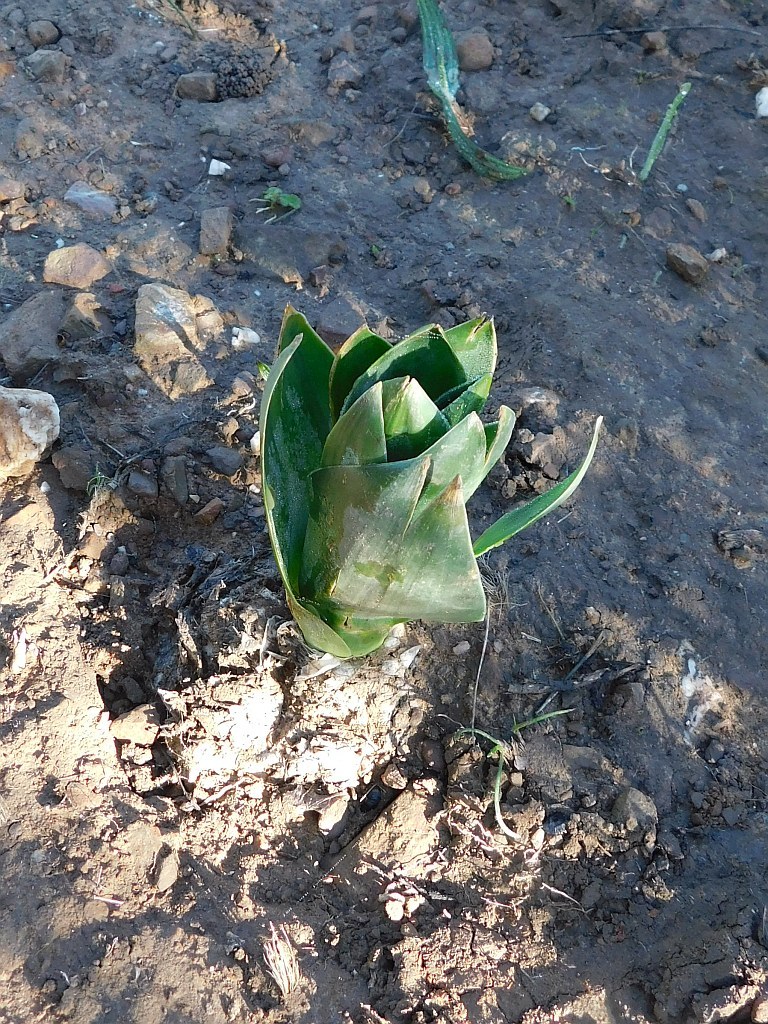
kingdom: Plantae
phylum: Tracheophyta
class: Liliopsida
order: Asparagales
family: Asparagaceae
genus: Drimia
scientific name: Drimia capensis
